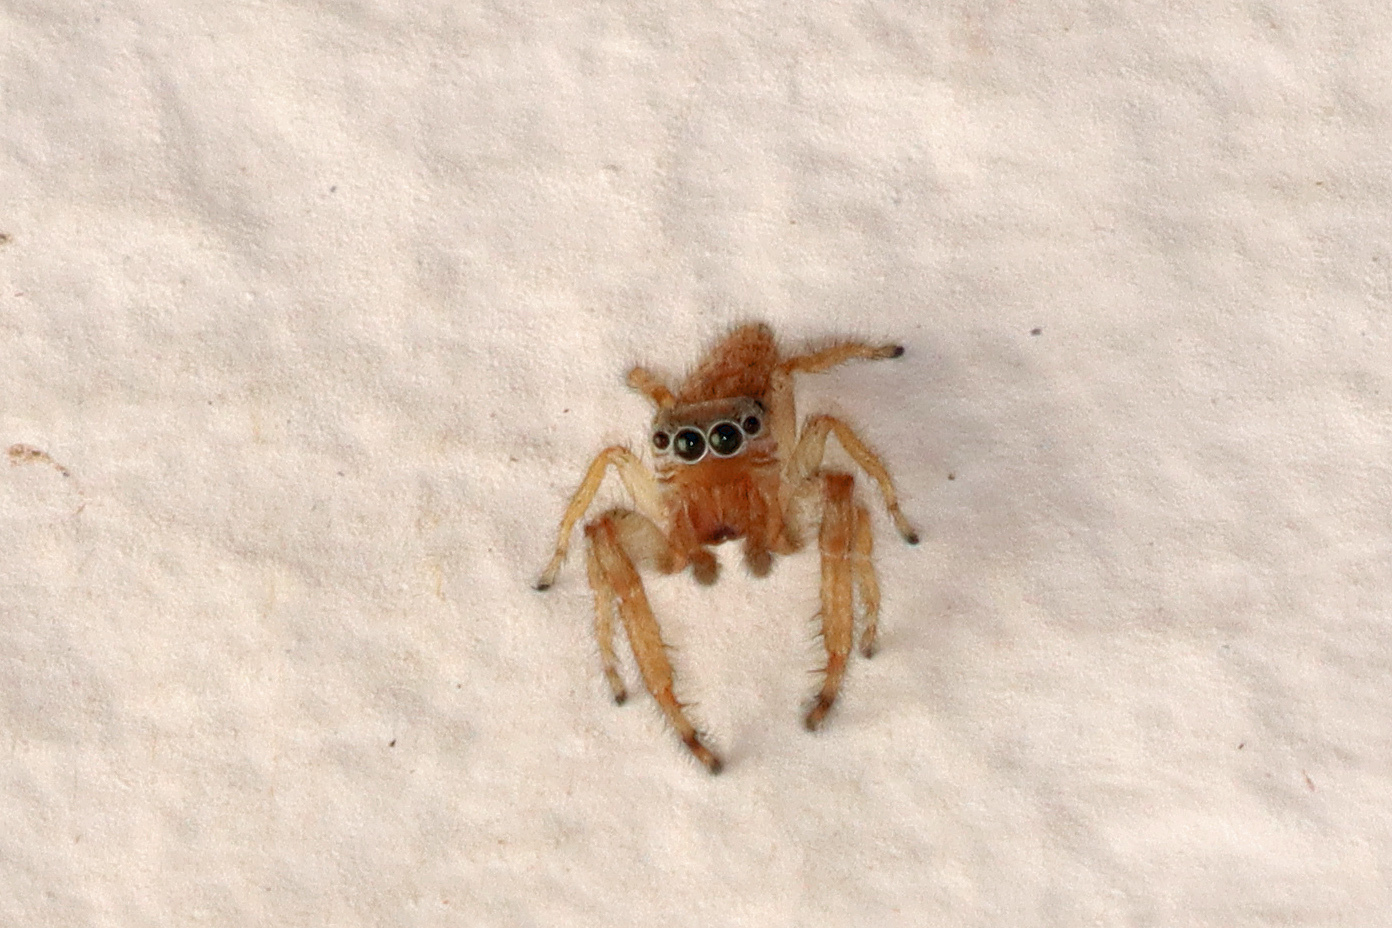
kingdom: Animalia
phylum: Arthropoda
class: Arachnida
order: Araneae
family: Salticidae
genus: Macaroeris
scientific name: Macaroeris cata
